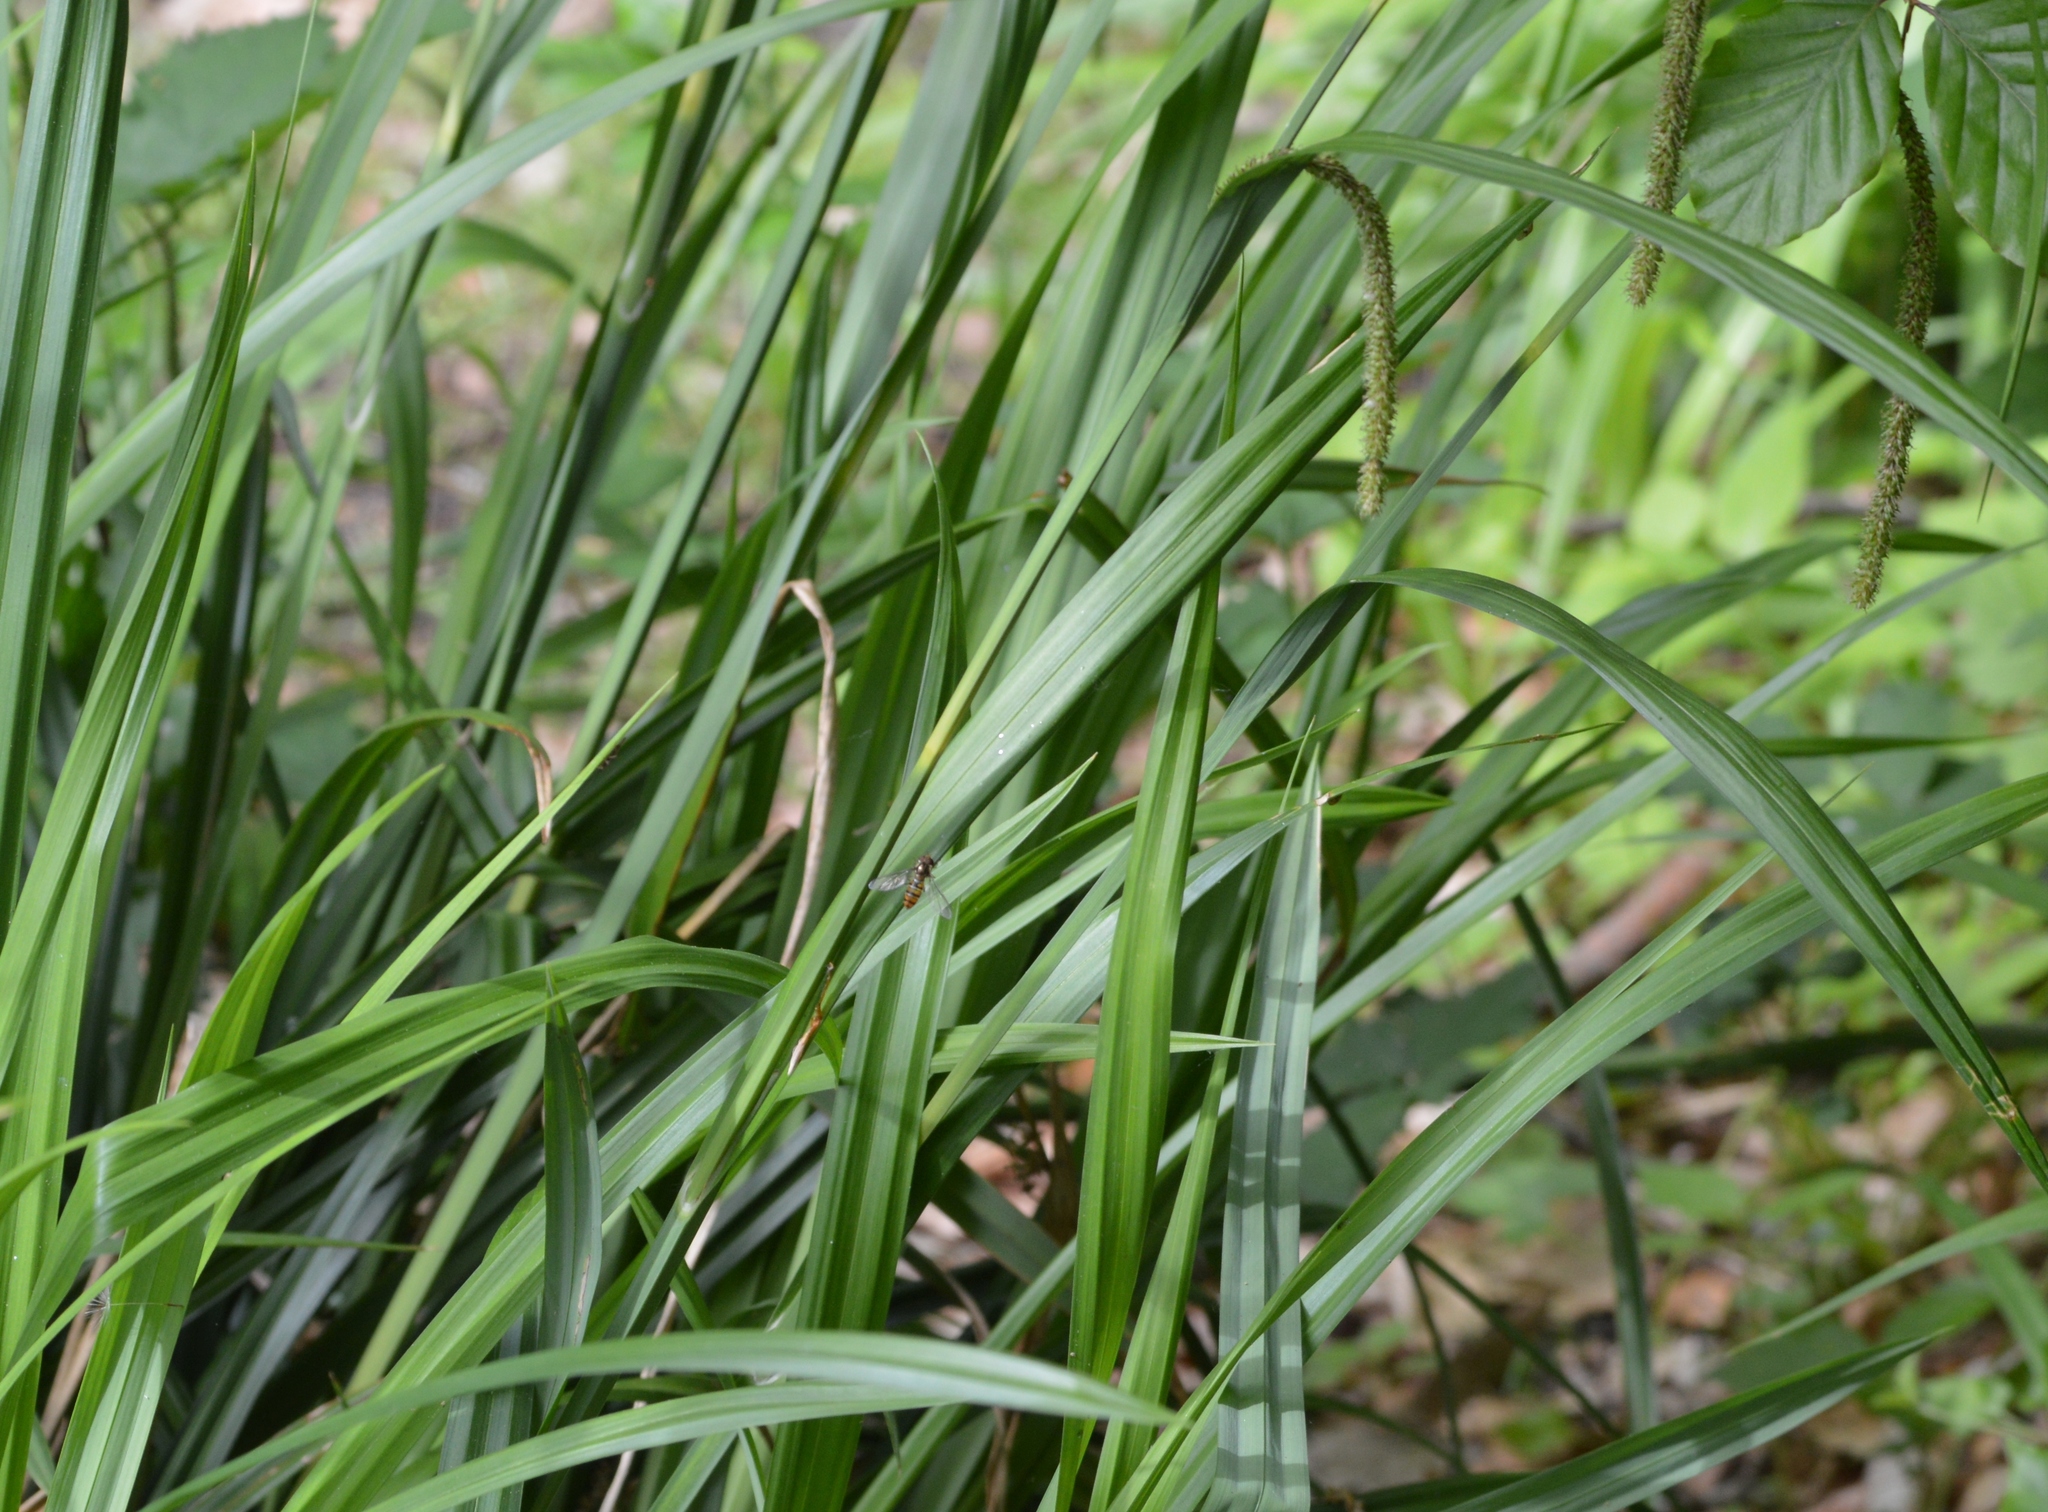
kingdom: Animalia
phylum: Arthropoda
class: Insecta
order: Diptera
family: Syrphidae
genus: Episyrphus
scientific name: Episyrphus balteatus
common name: Marmalade hoverfly
